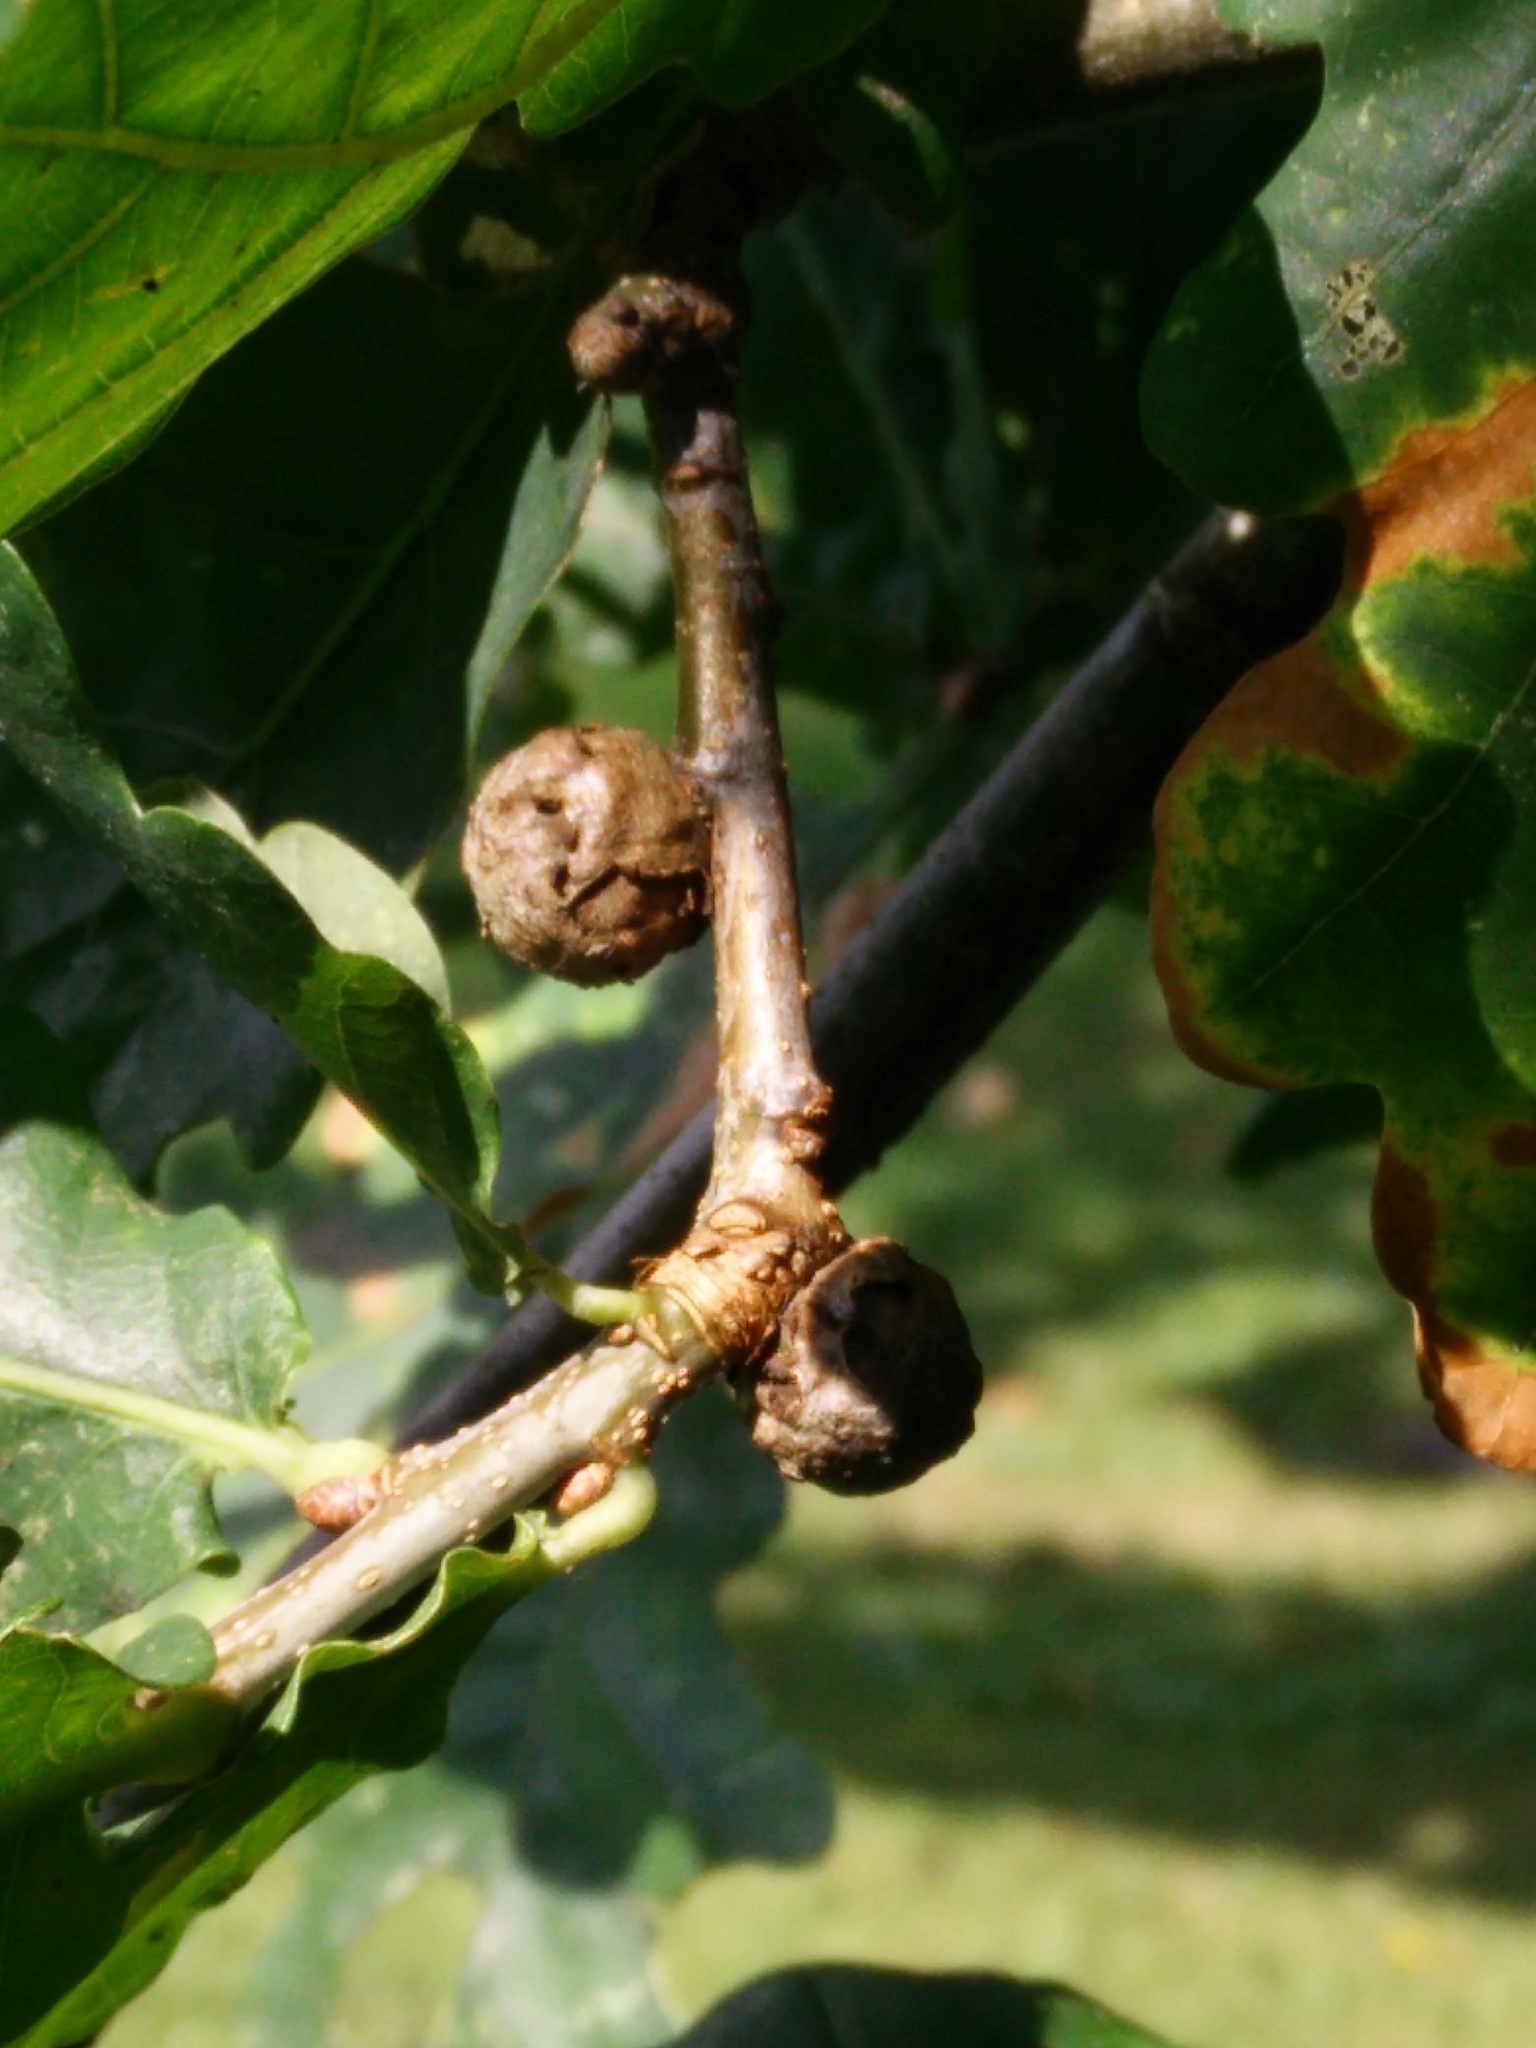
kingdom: Animalia
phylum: Arthropoda
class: Insecta
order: Hymenoptera
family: Cynipidae
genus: Andricus
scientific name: Andricus lignicolus
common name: Cola-nut gall
